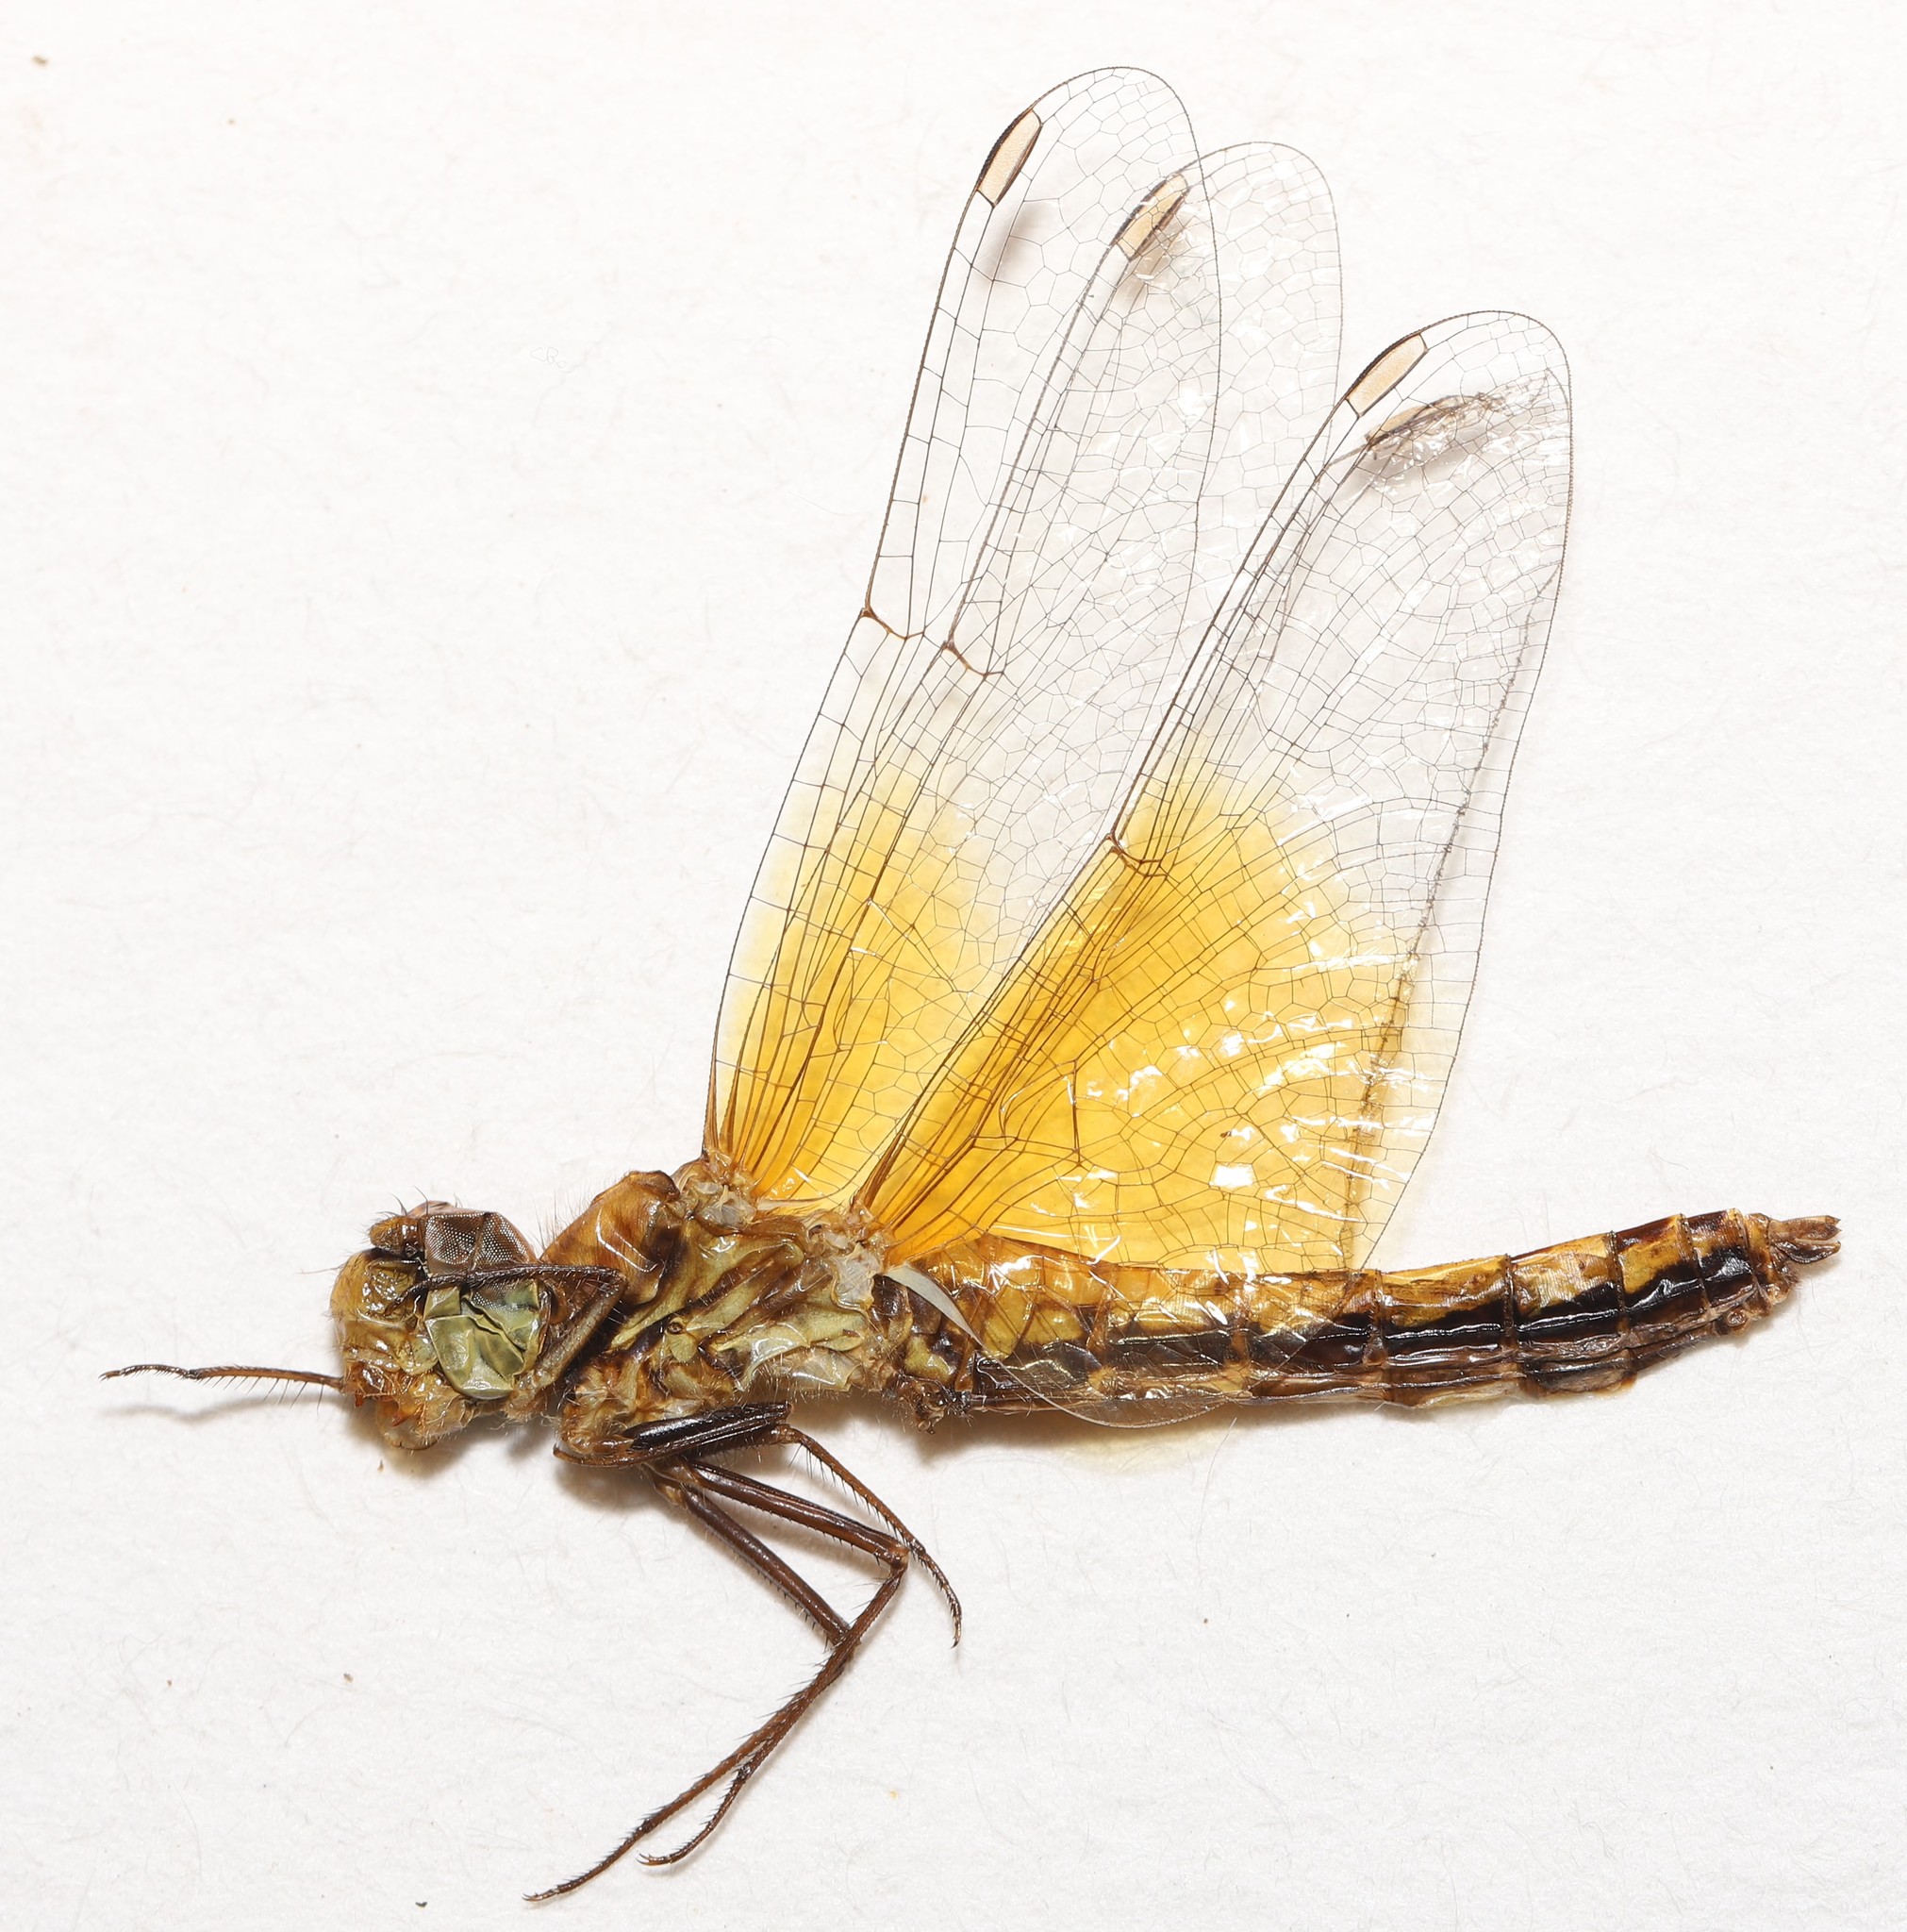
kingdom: Animalia
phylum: Arthropoda
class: Insecta
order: Odonata
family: Libellulidae
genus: Sympetrum
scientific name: Sympetrum semicinctum
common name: Band-winged meadowhawk
